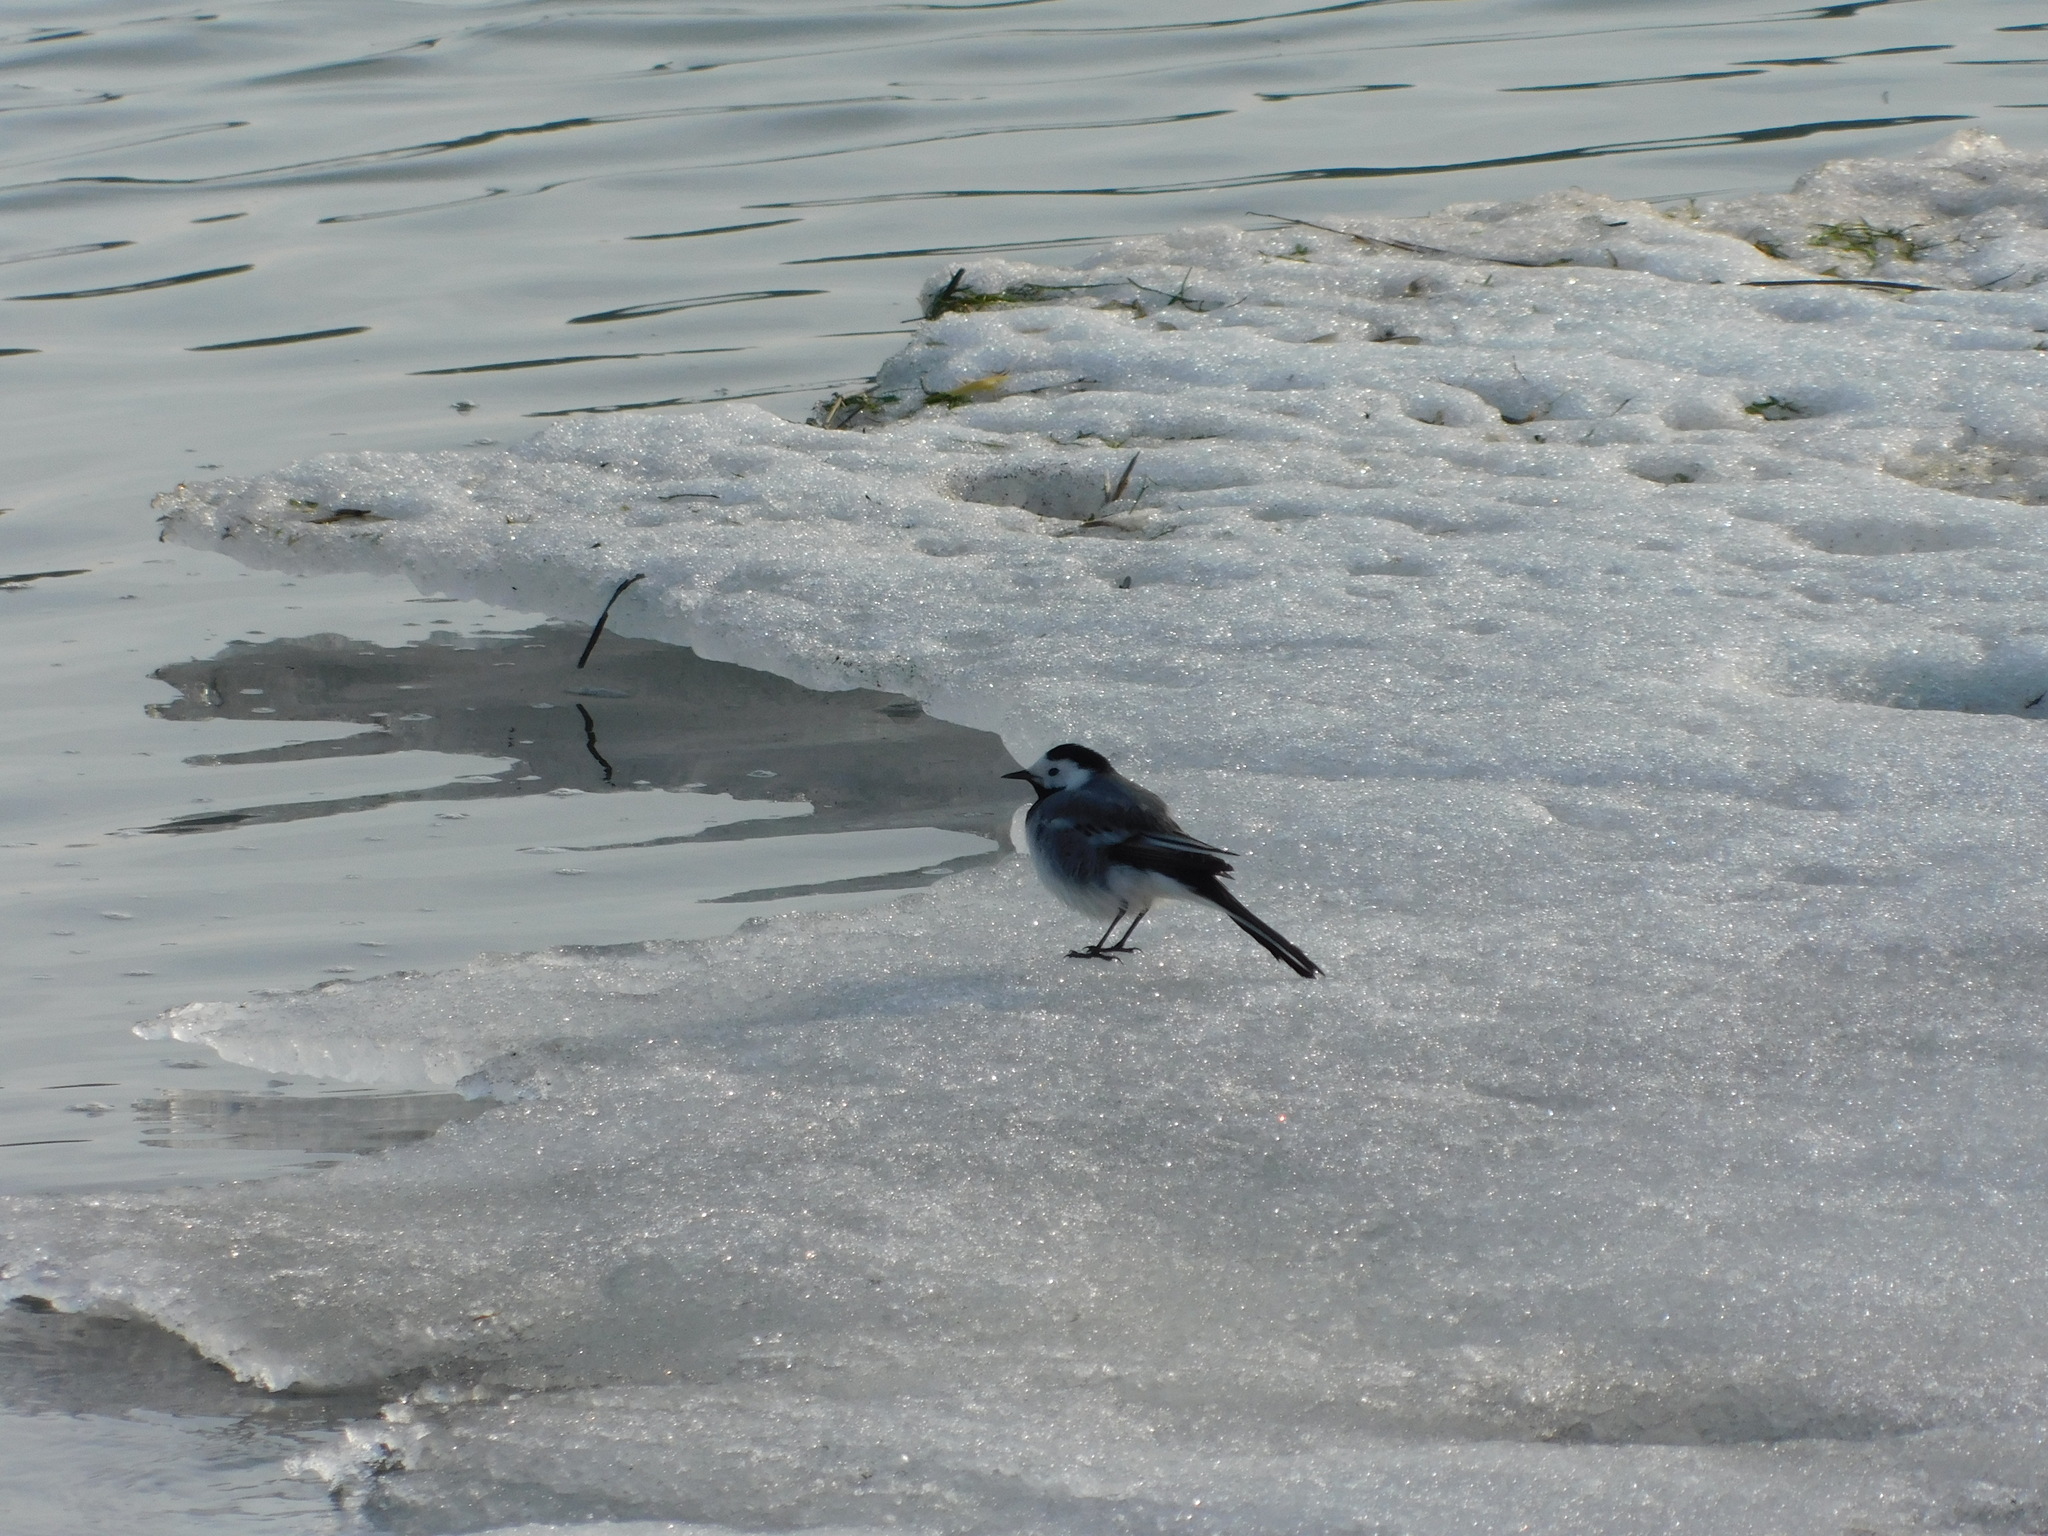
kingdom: Animalia
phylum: Chordata
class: Aves
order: Passeriformes
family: Motacillidae
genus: Motacilla
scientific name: Motacilla alba
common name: White wagtail
